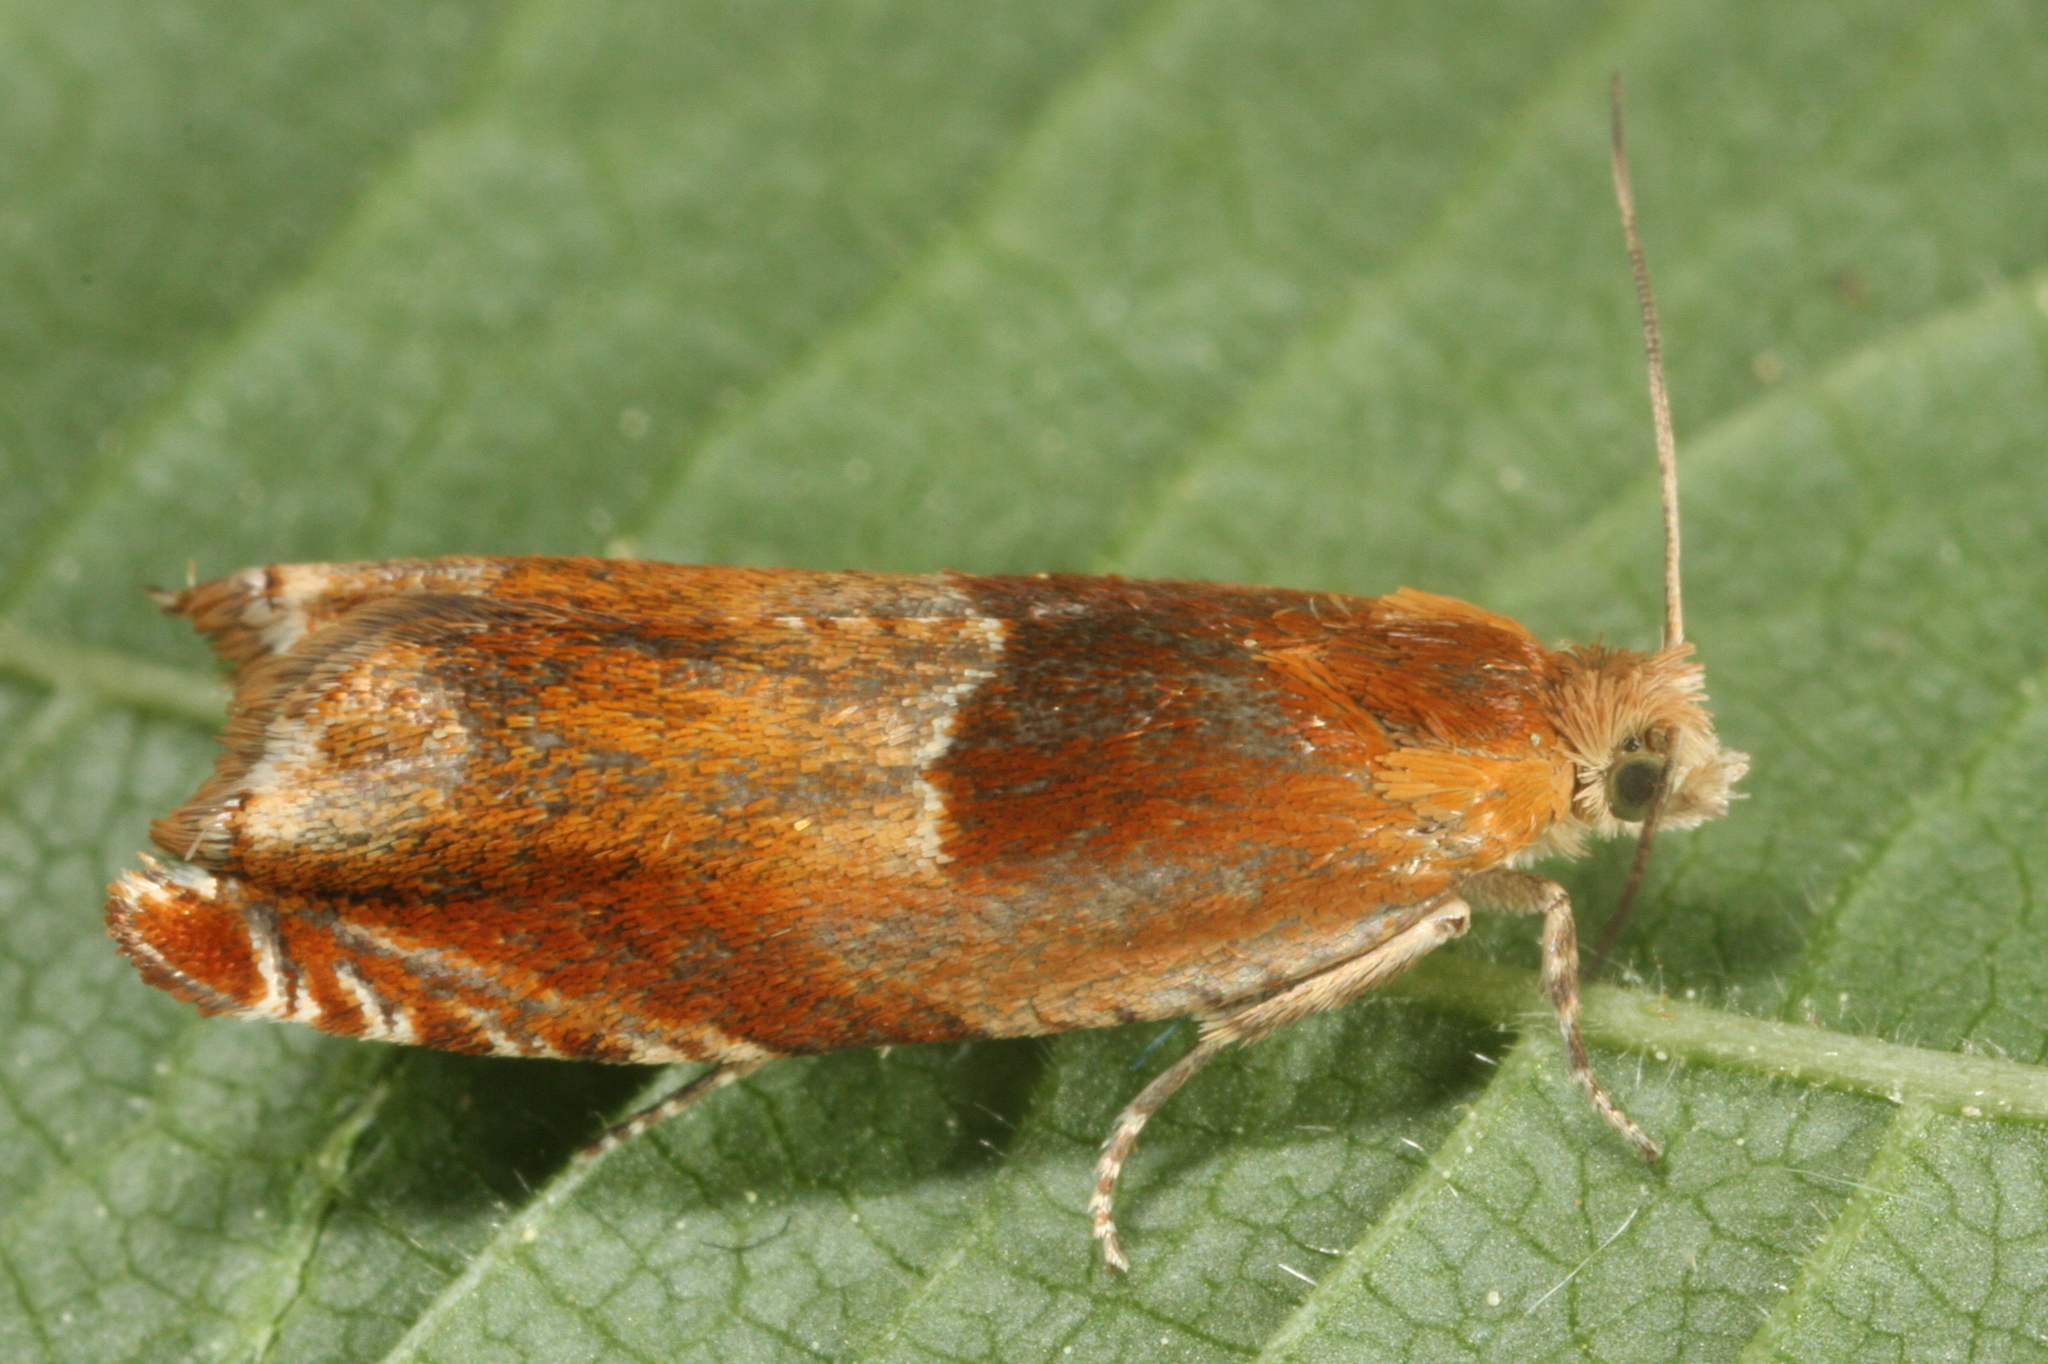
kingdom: Animalia
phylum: Arthropoda
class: Insecta
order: Lepidoptera
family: Tortricidae
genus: Ancylis
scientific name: Ancylis mitterbacheriana
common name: Red roller
